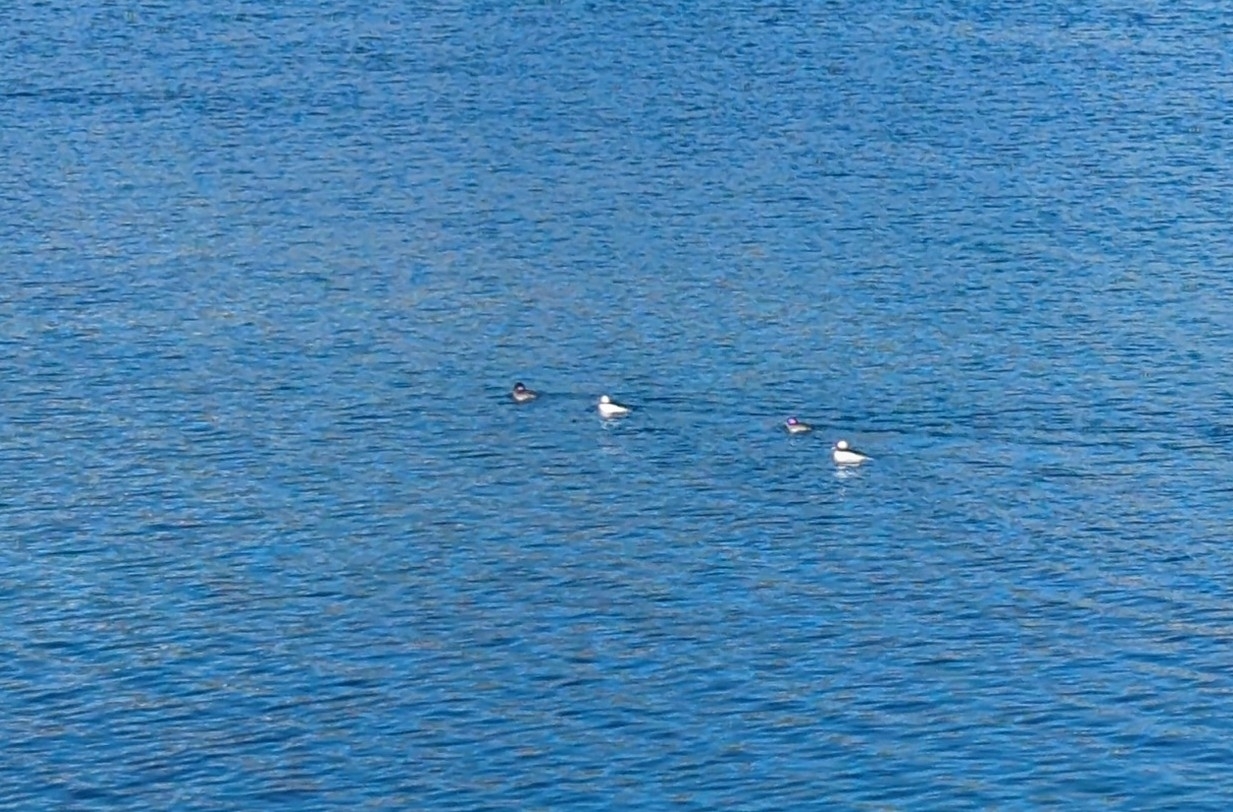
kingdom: Animalia
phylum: Chordata
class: Aves
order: Anseriformes
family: Anatidae
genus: Bucephala
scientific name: Bucephala albeola
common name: Bufflehead
